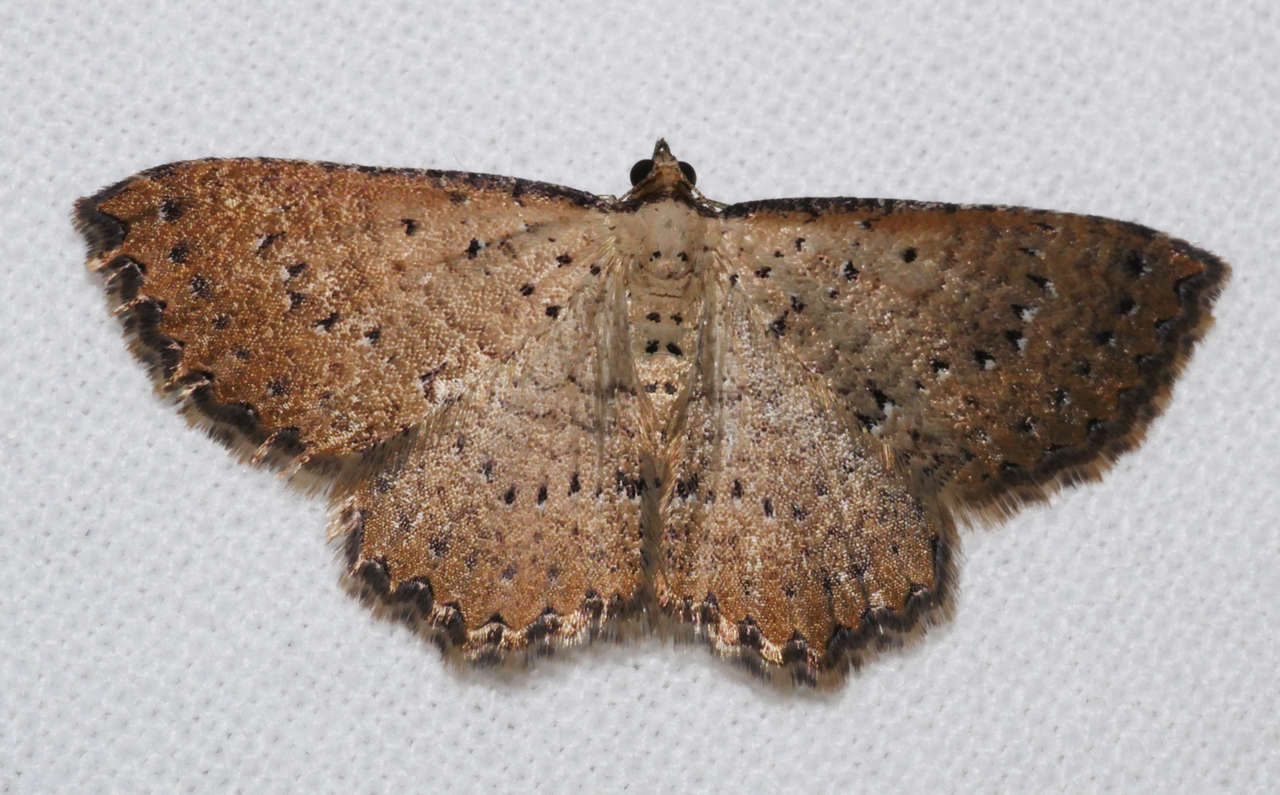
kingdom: Animalia
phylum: Arthropoda
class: Insecta
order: Lepidoptera
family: Geometridae
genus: Chrysolarentia
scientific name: Chrysolarentia microcyma
